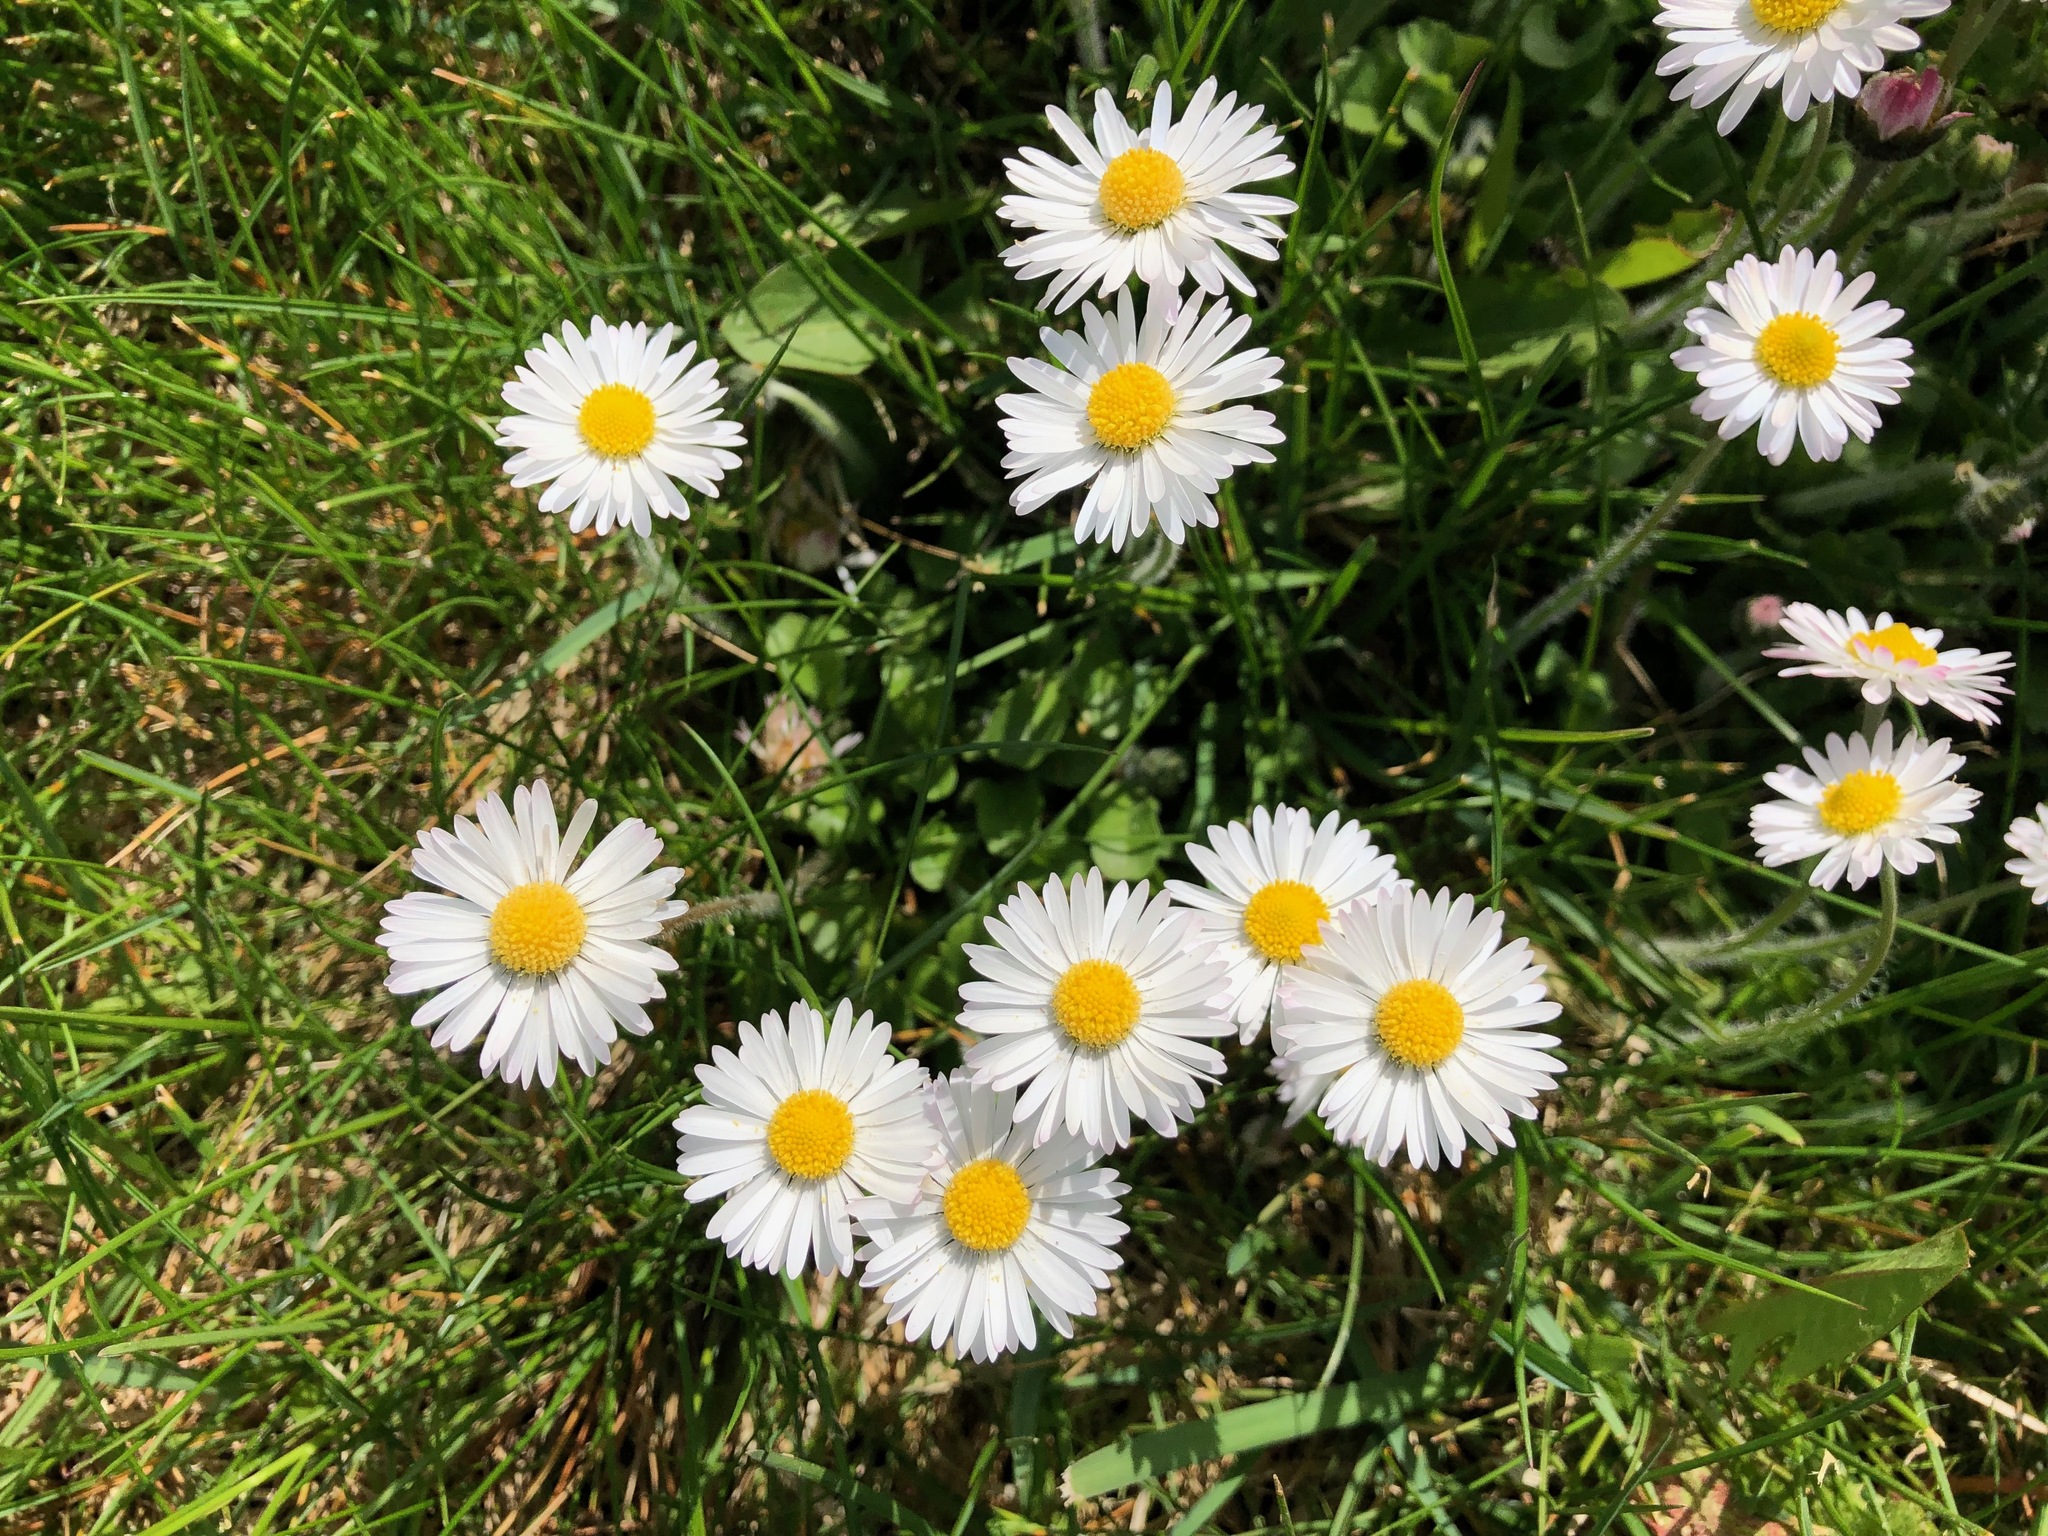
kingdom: Plantae
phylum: Tracheophyta
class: Magnoliopsida
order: Asterales
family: Asteraceae
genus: Bellis
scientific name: Bellis perennis
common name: Lawndaisy
